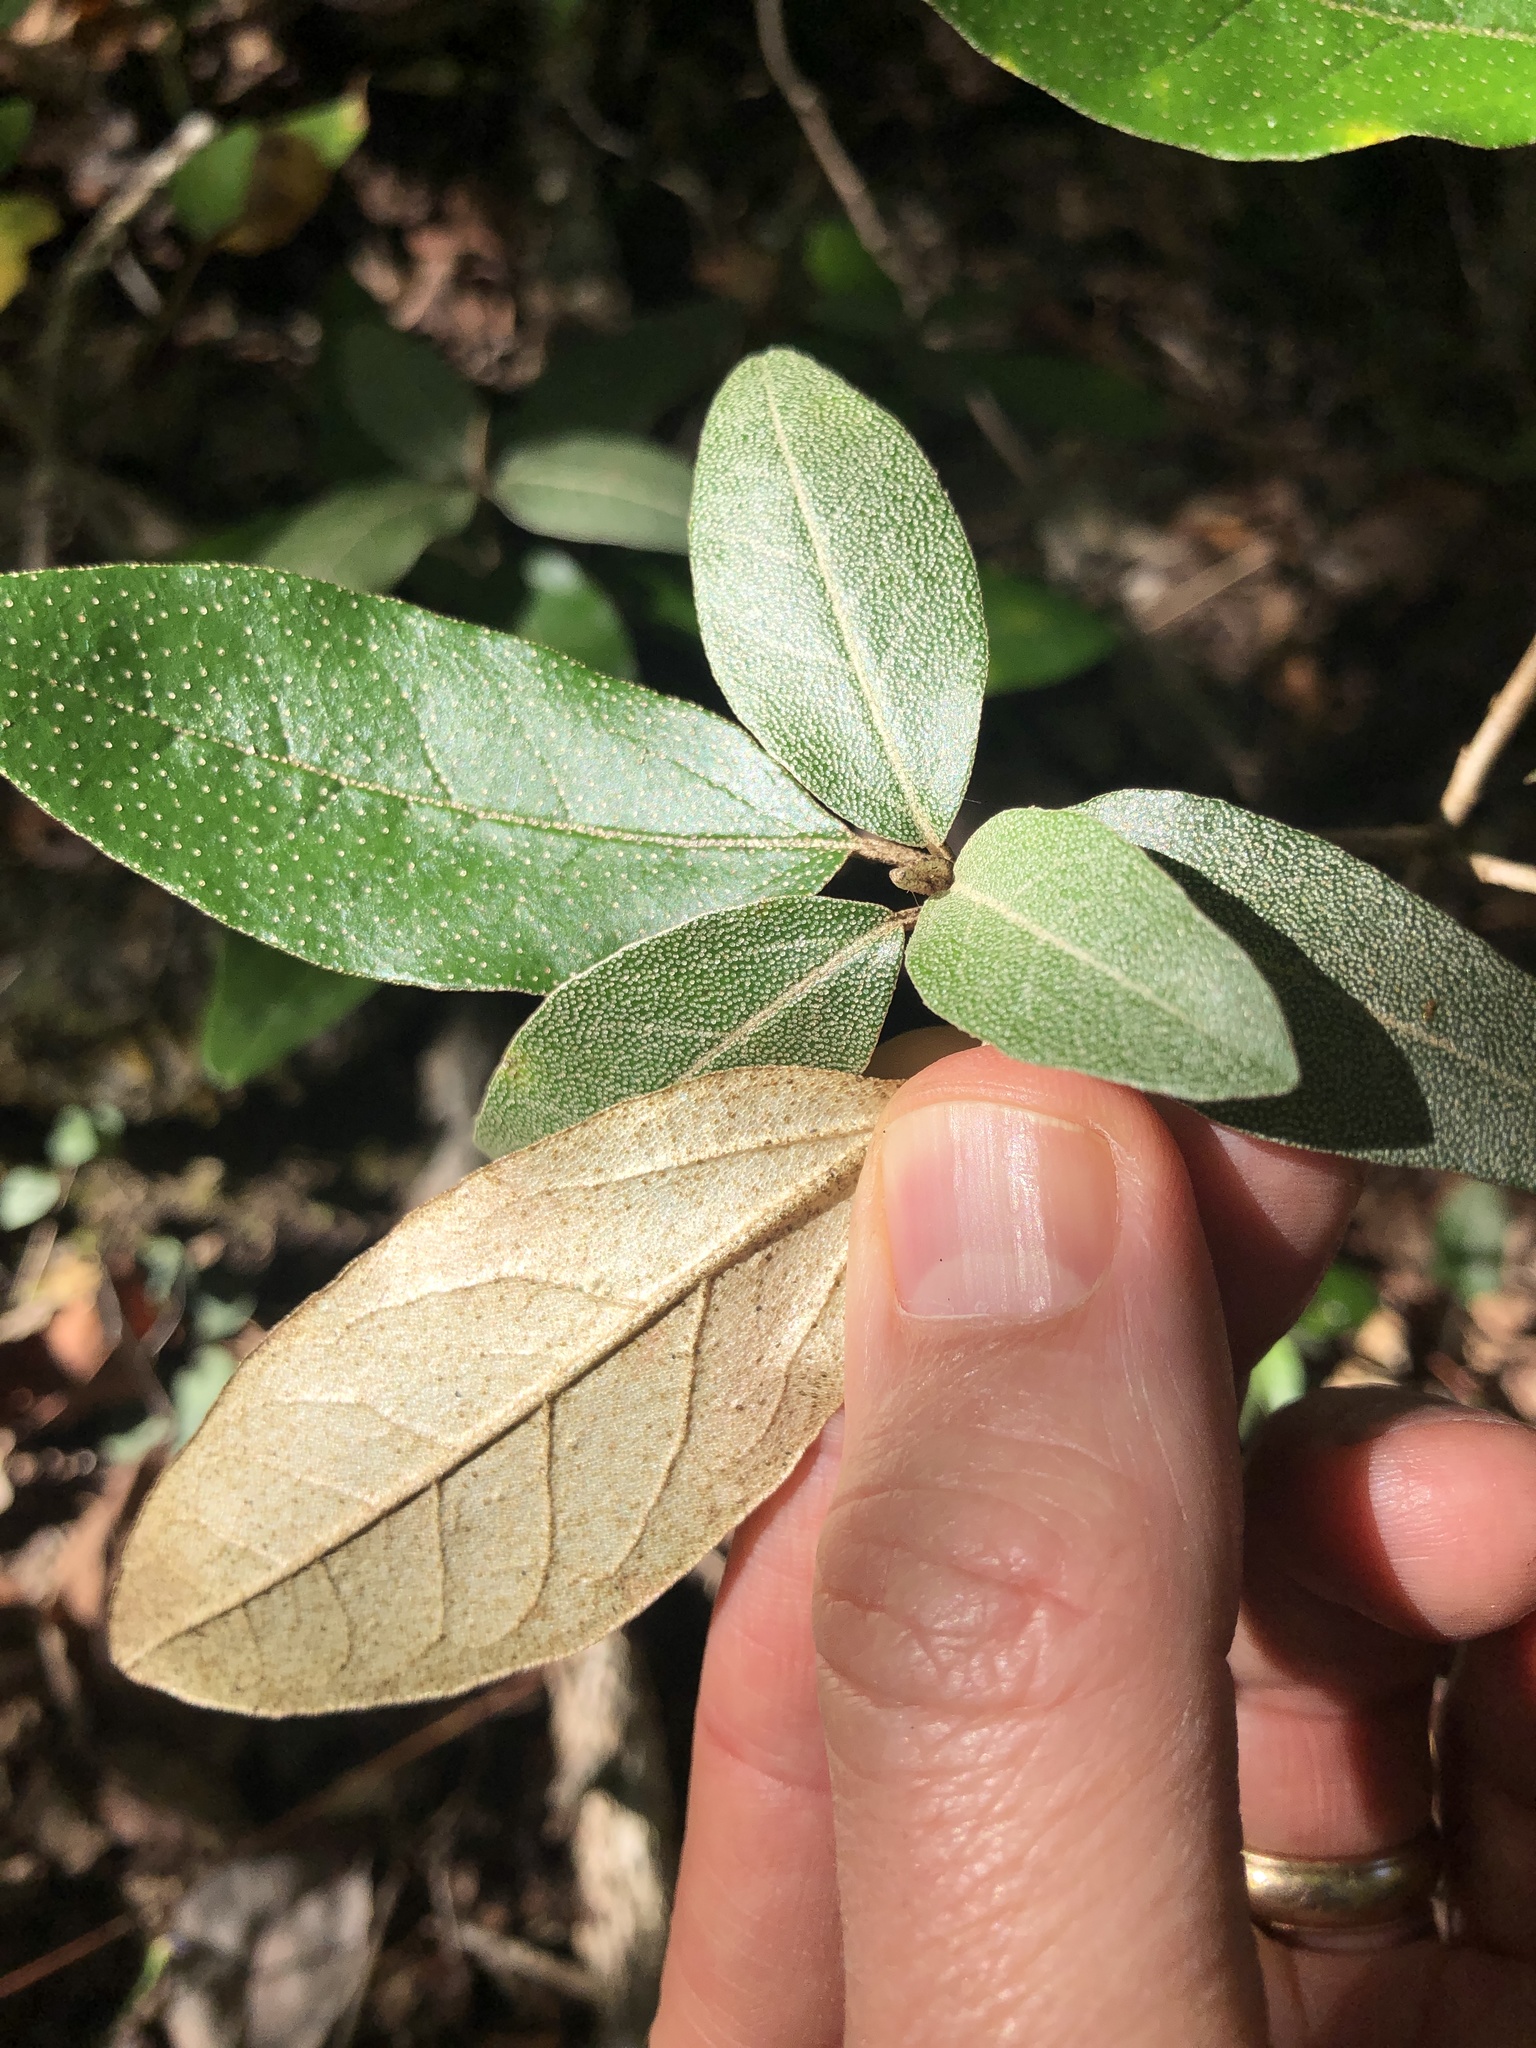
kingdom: Plantae
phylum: Tracheophyta
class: Magnoliopsida
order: Malpighiales
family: Euphorbiaceae
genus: Croton
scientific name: Croton alabamensis
